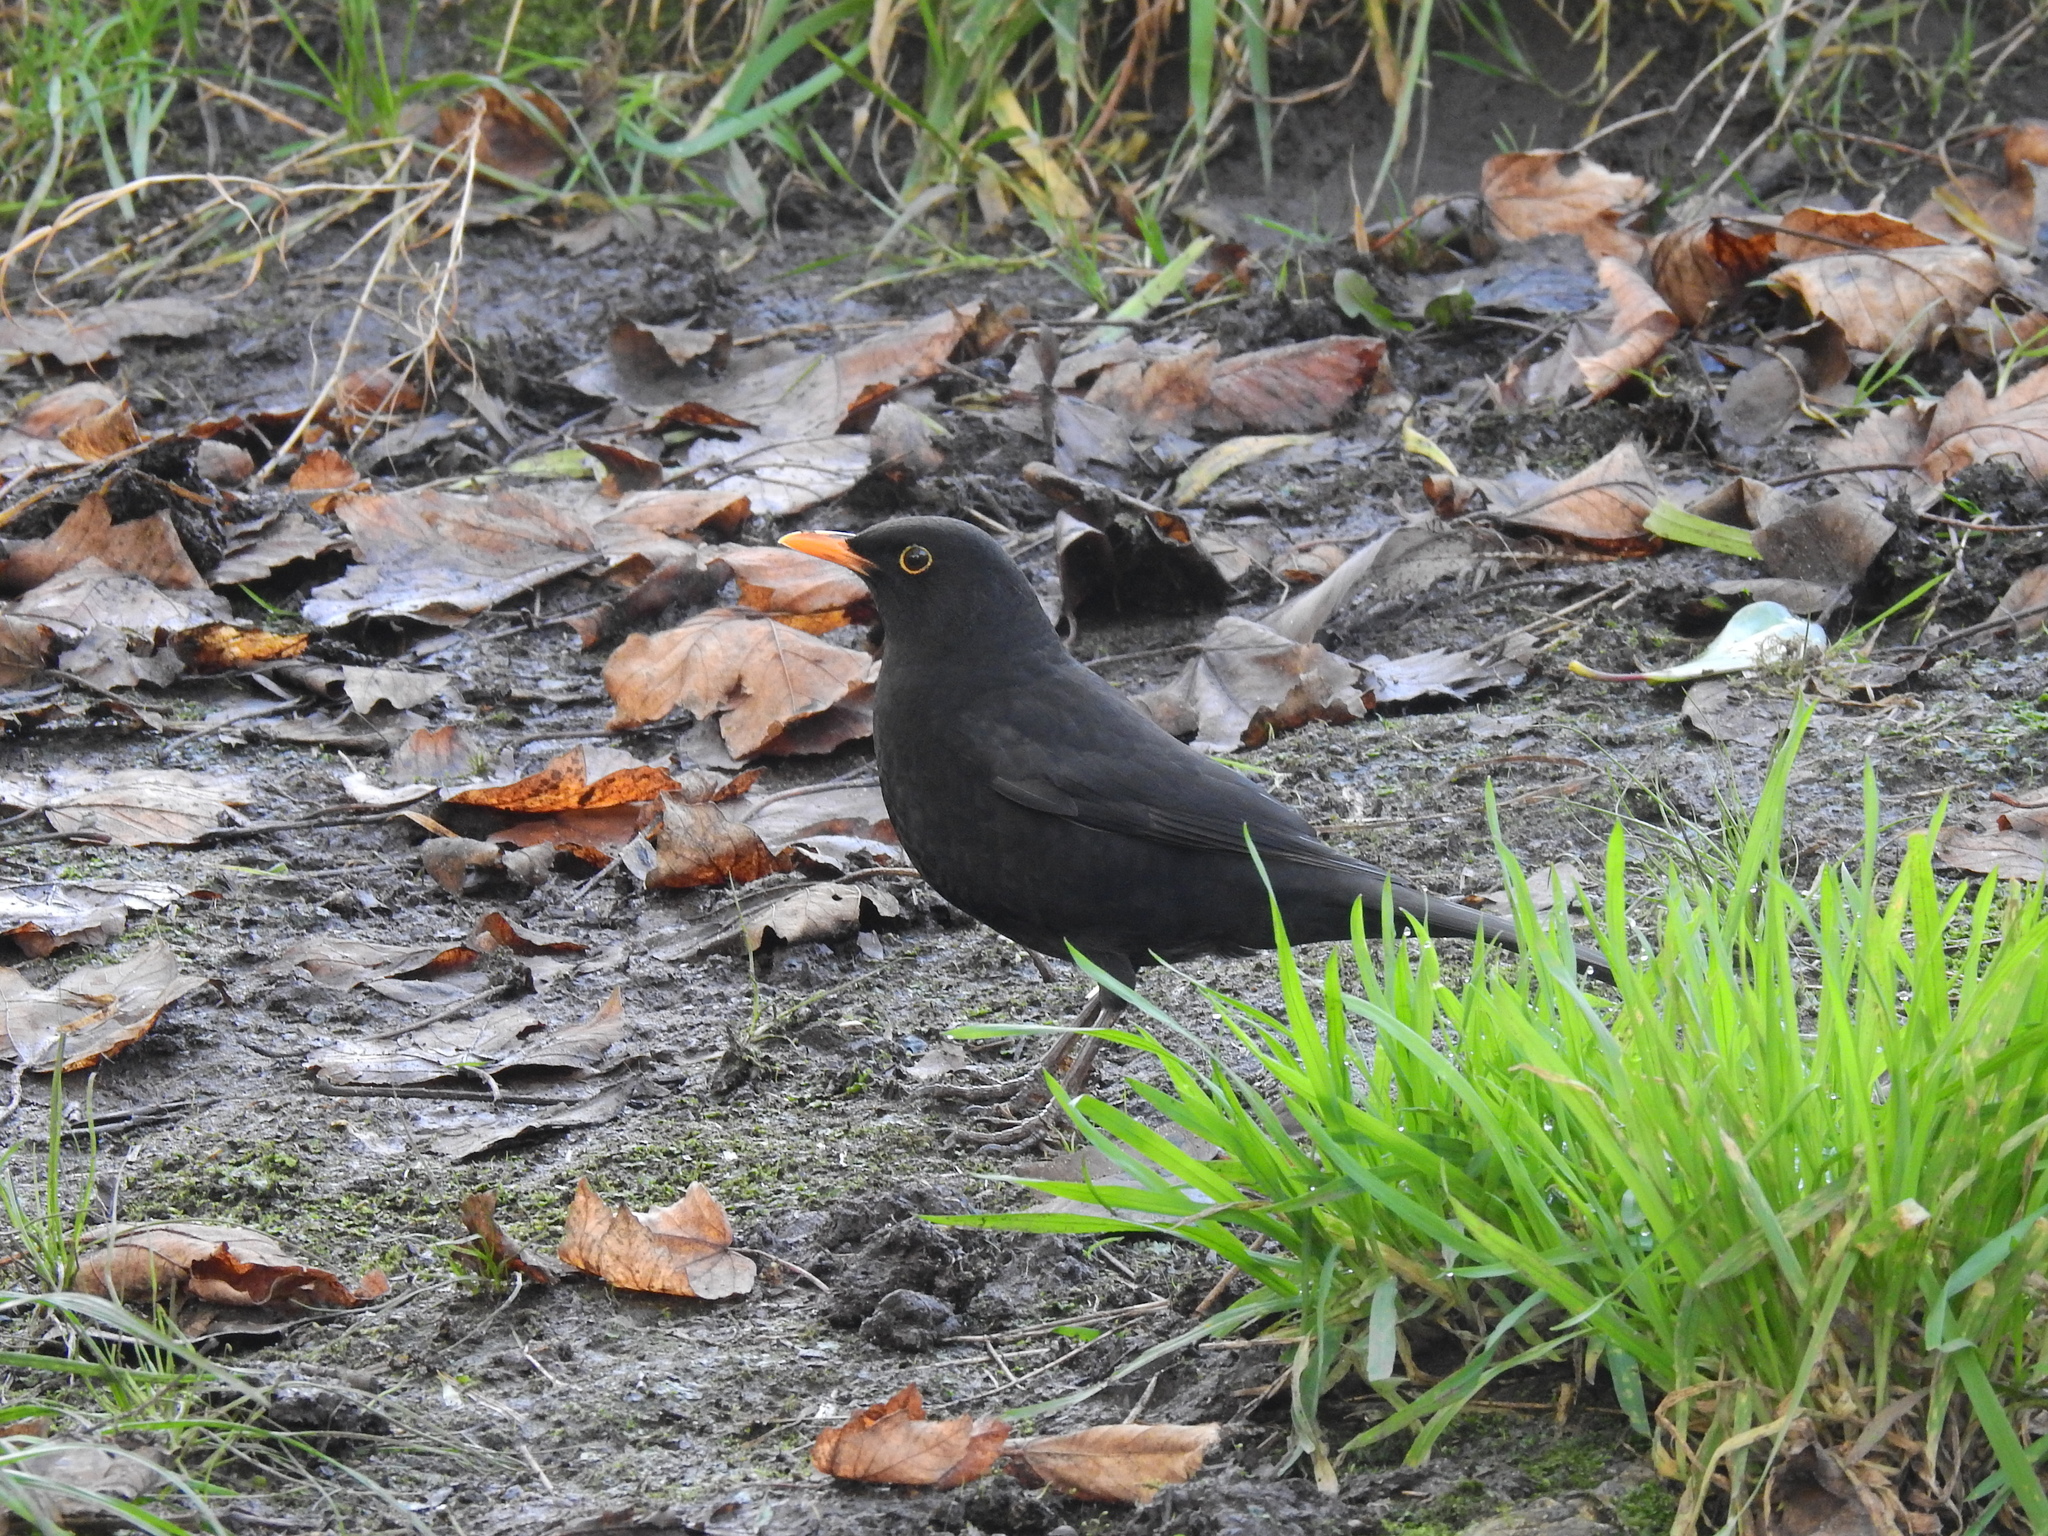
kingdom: Animalia
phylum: Chordata
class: Aves
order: Passeriformes
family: Turdidae
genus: Turdus
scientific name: Turdus merula
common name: Common blackbird
